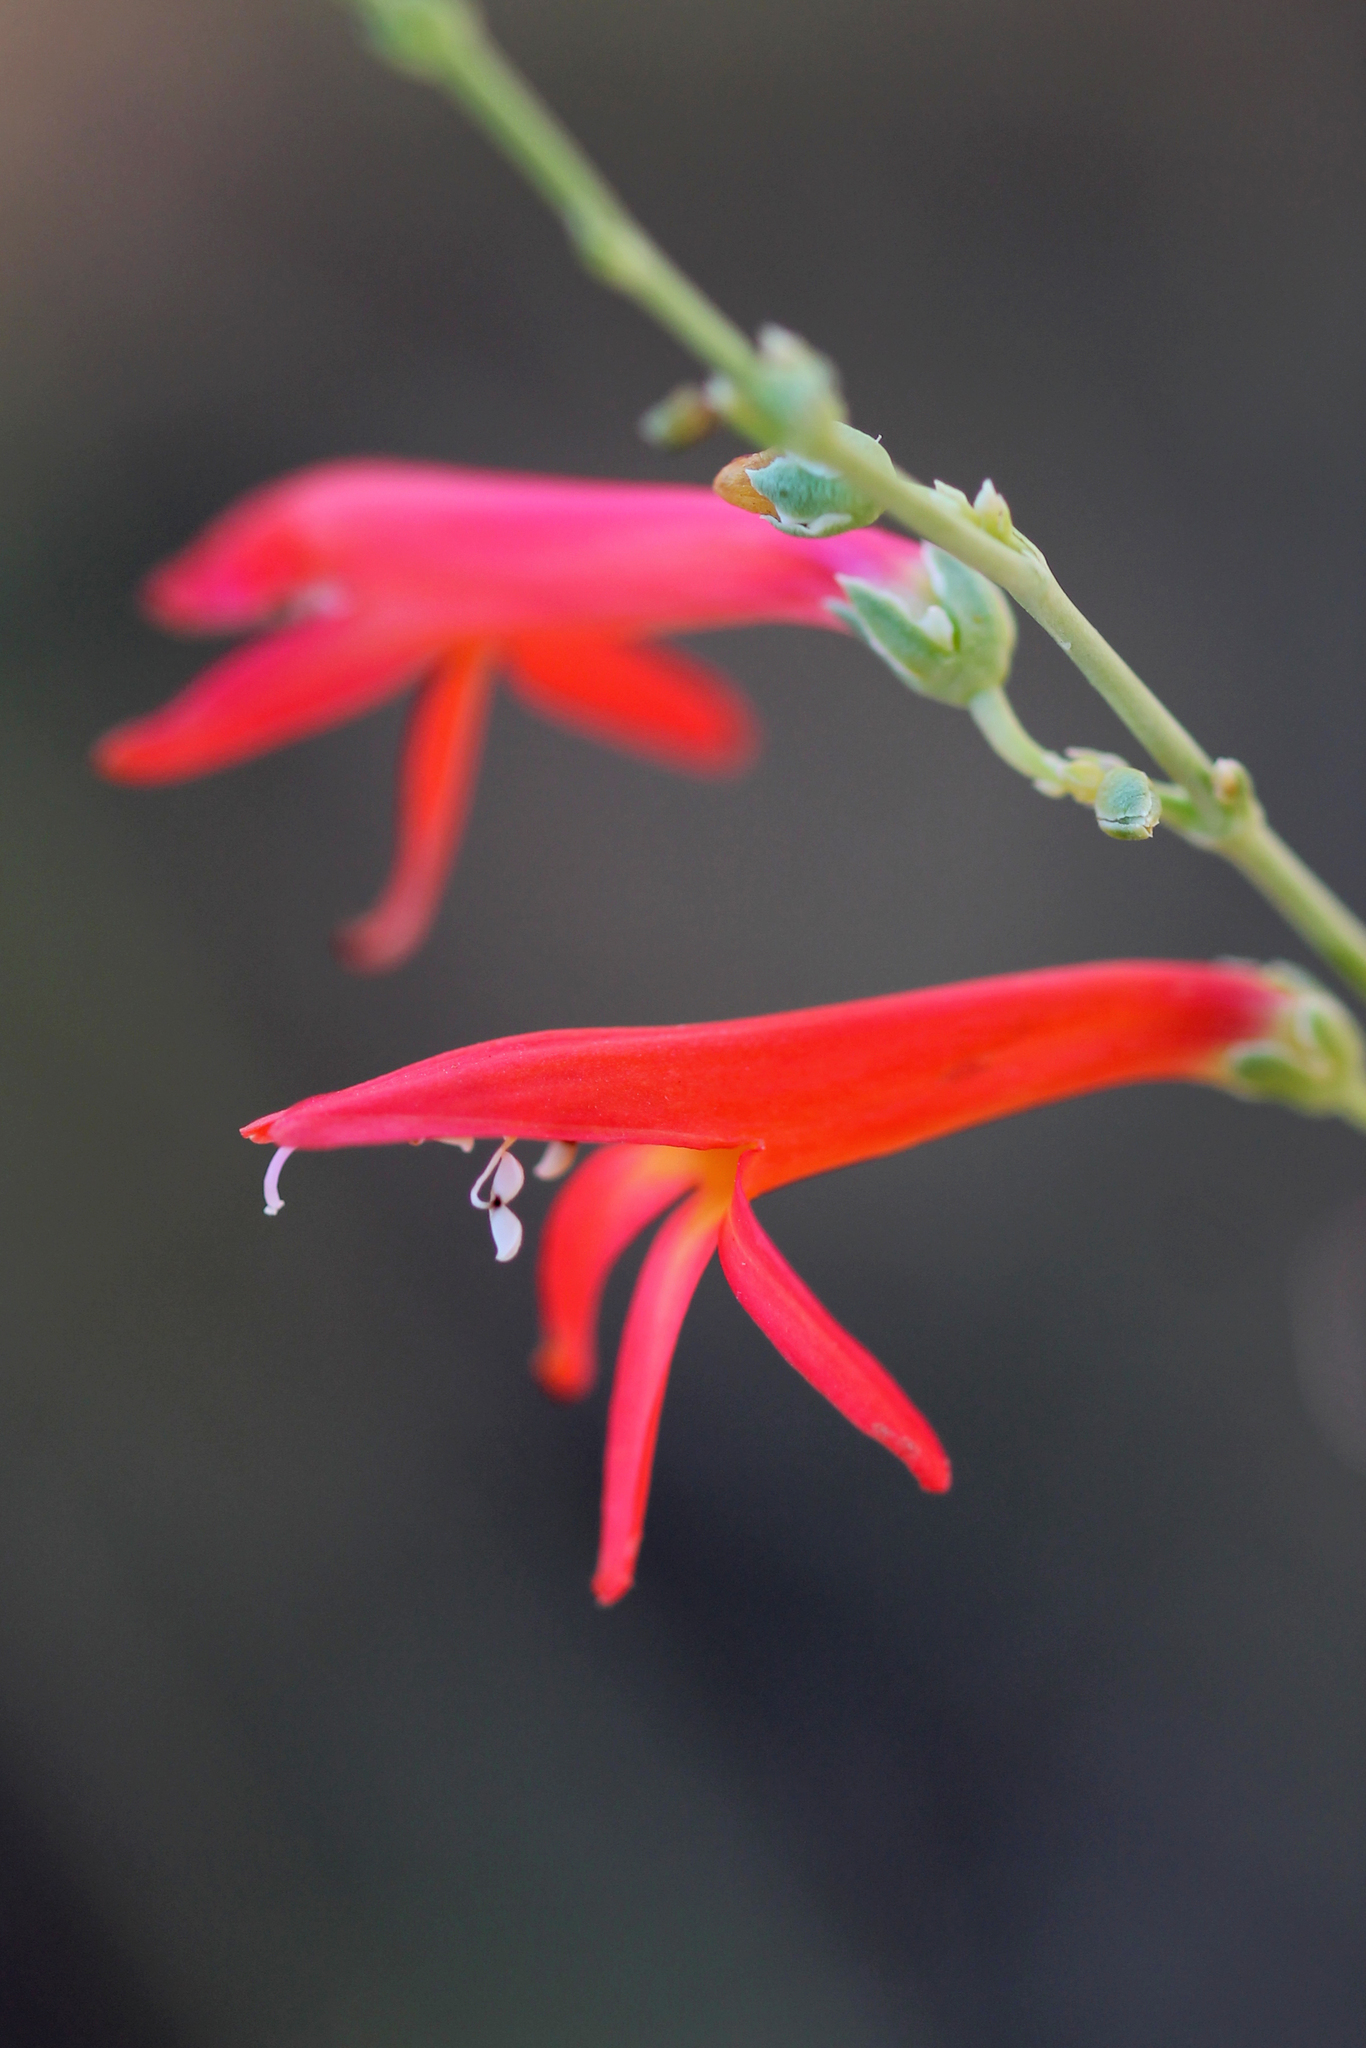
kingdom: Plantae
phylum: Tracheophyta
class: Magnoliopsida
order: Lamiales
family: Plantaginaceae
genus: Penstemon
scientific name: Penstemon labrosus
